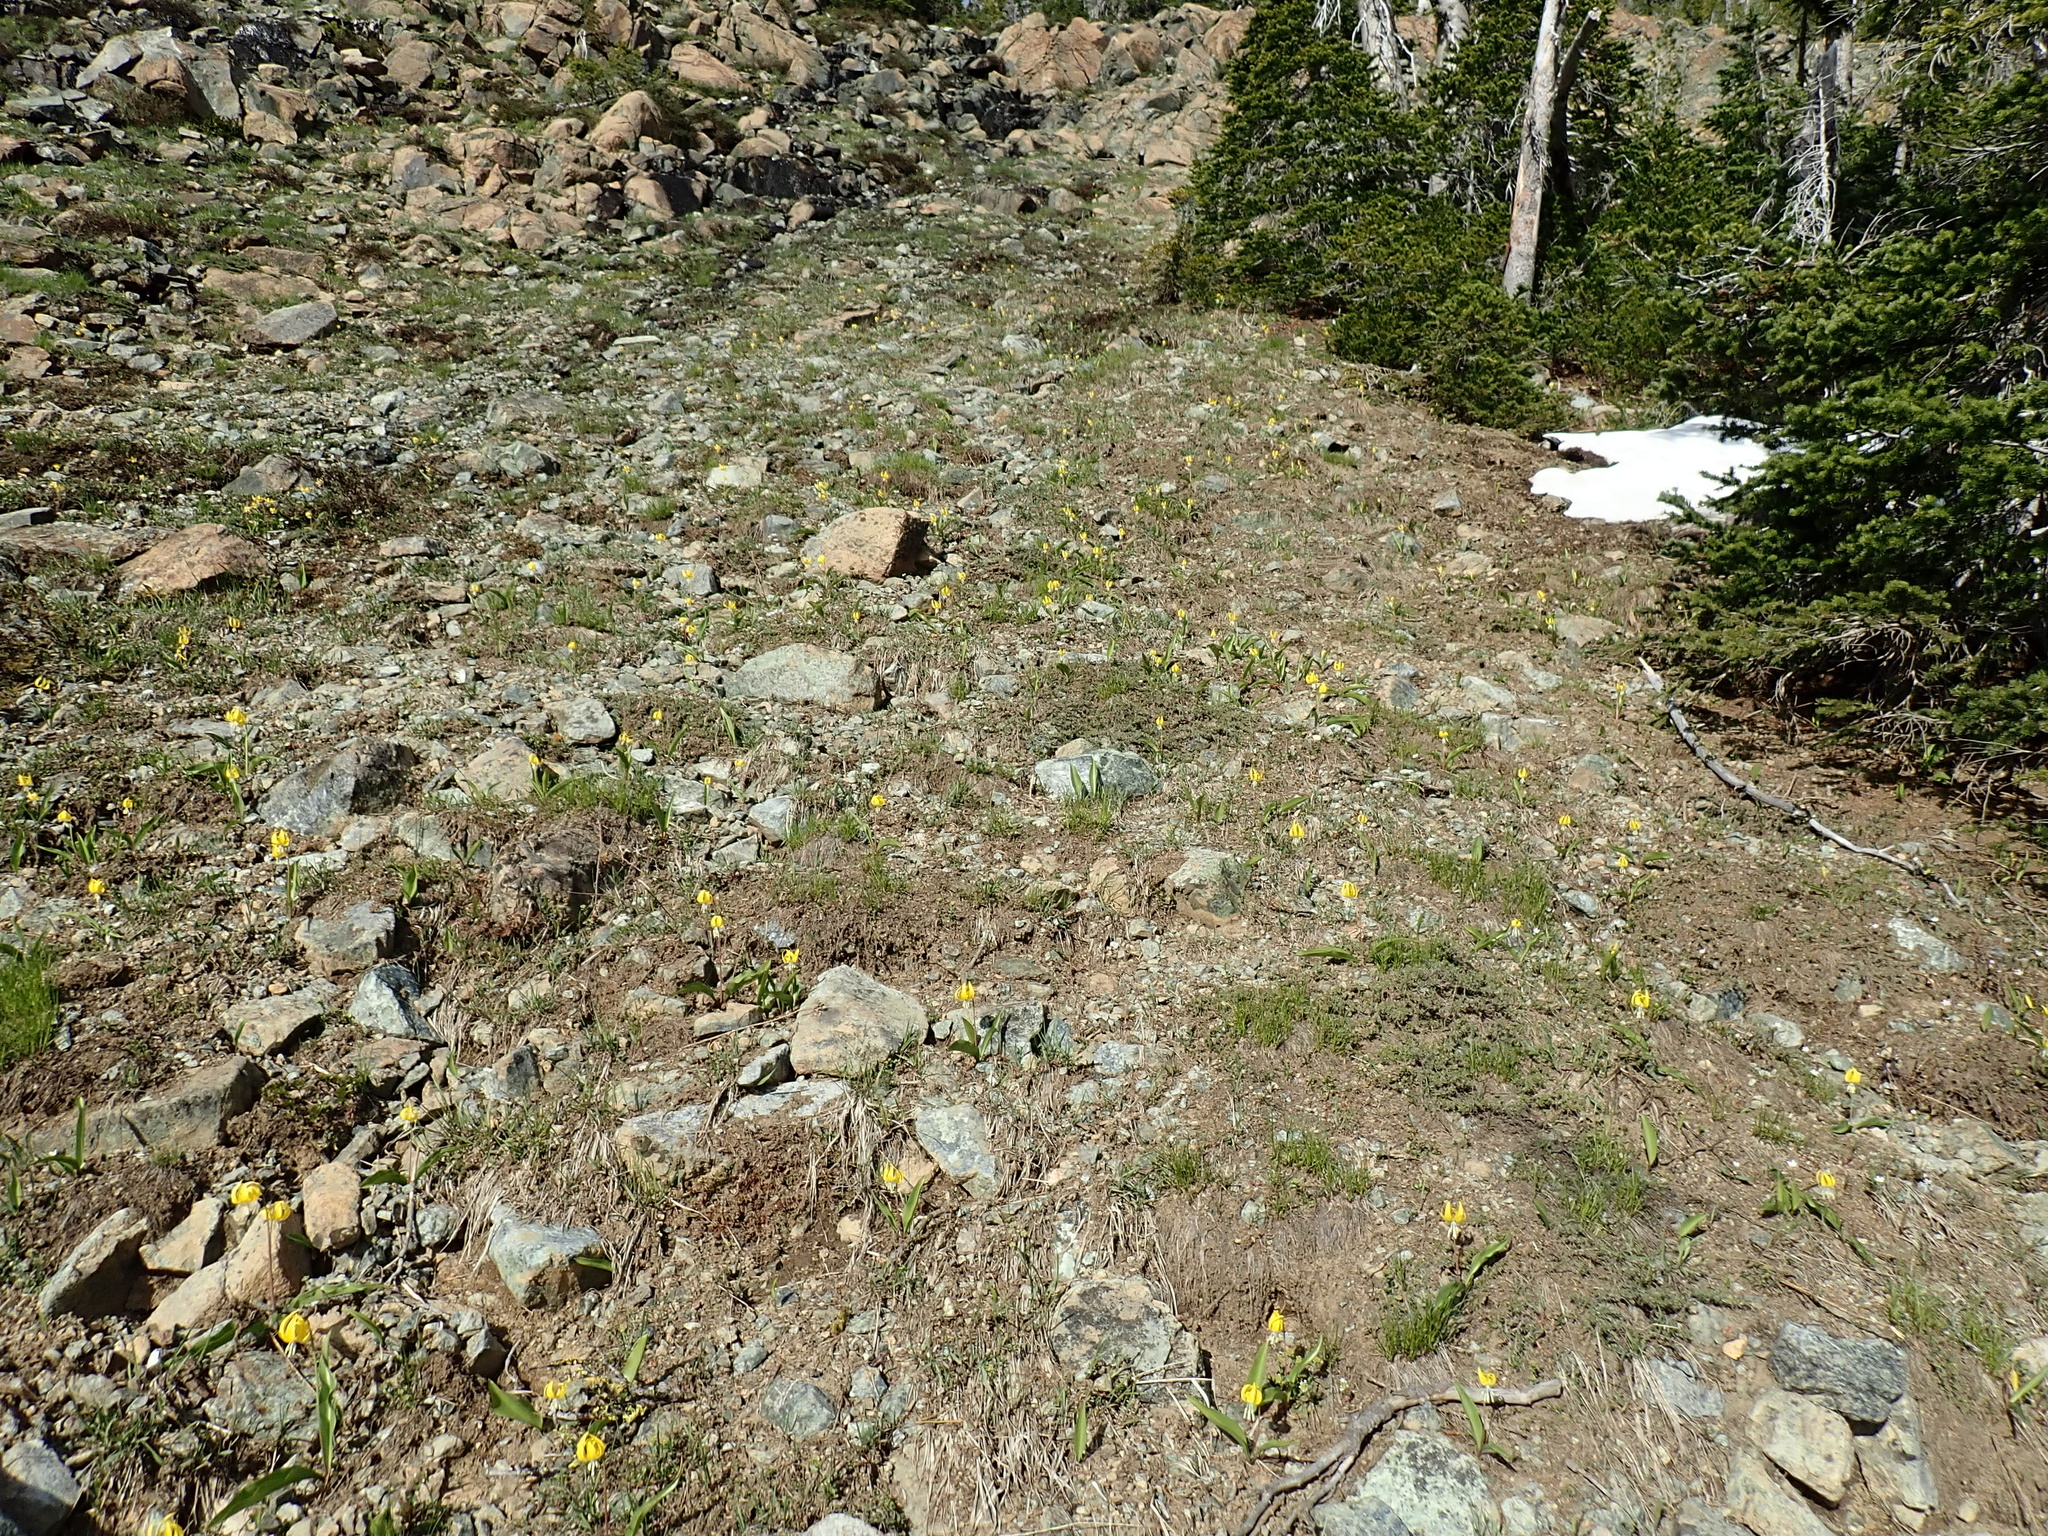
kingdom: Plantae
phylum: Tracheophyta
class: Liliopsida
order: Liliales
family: Liliaceae
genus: Erythronium
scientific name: Erythronium grandiflorum
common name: Avalanche-lily
